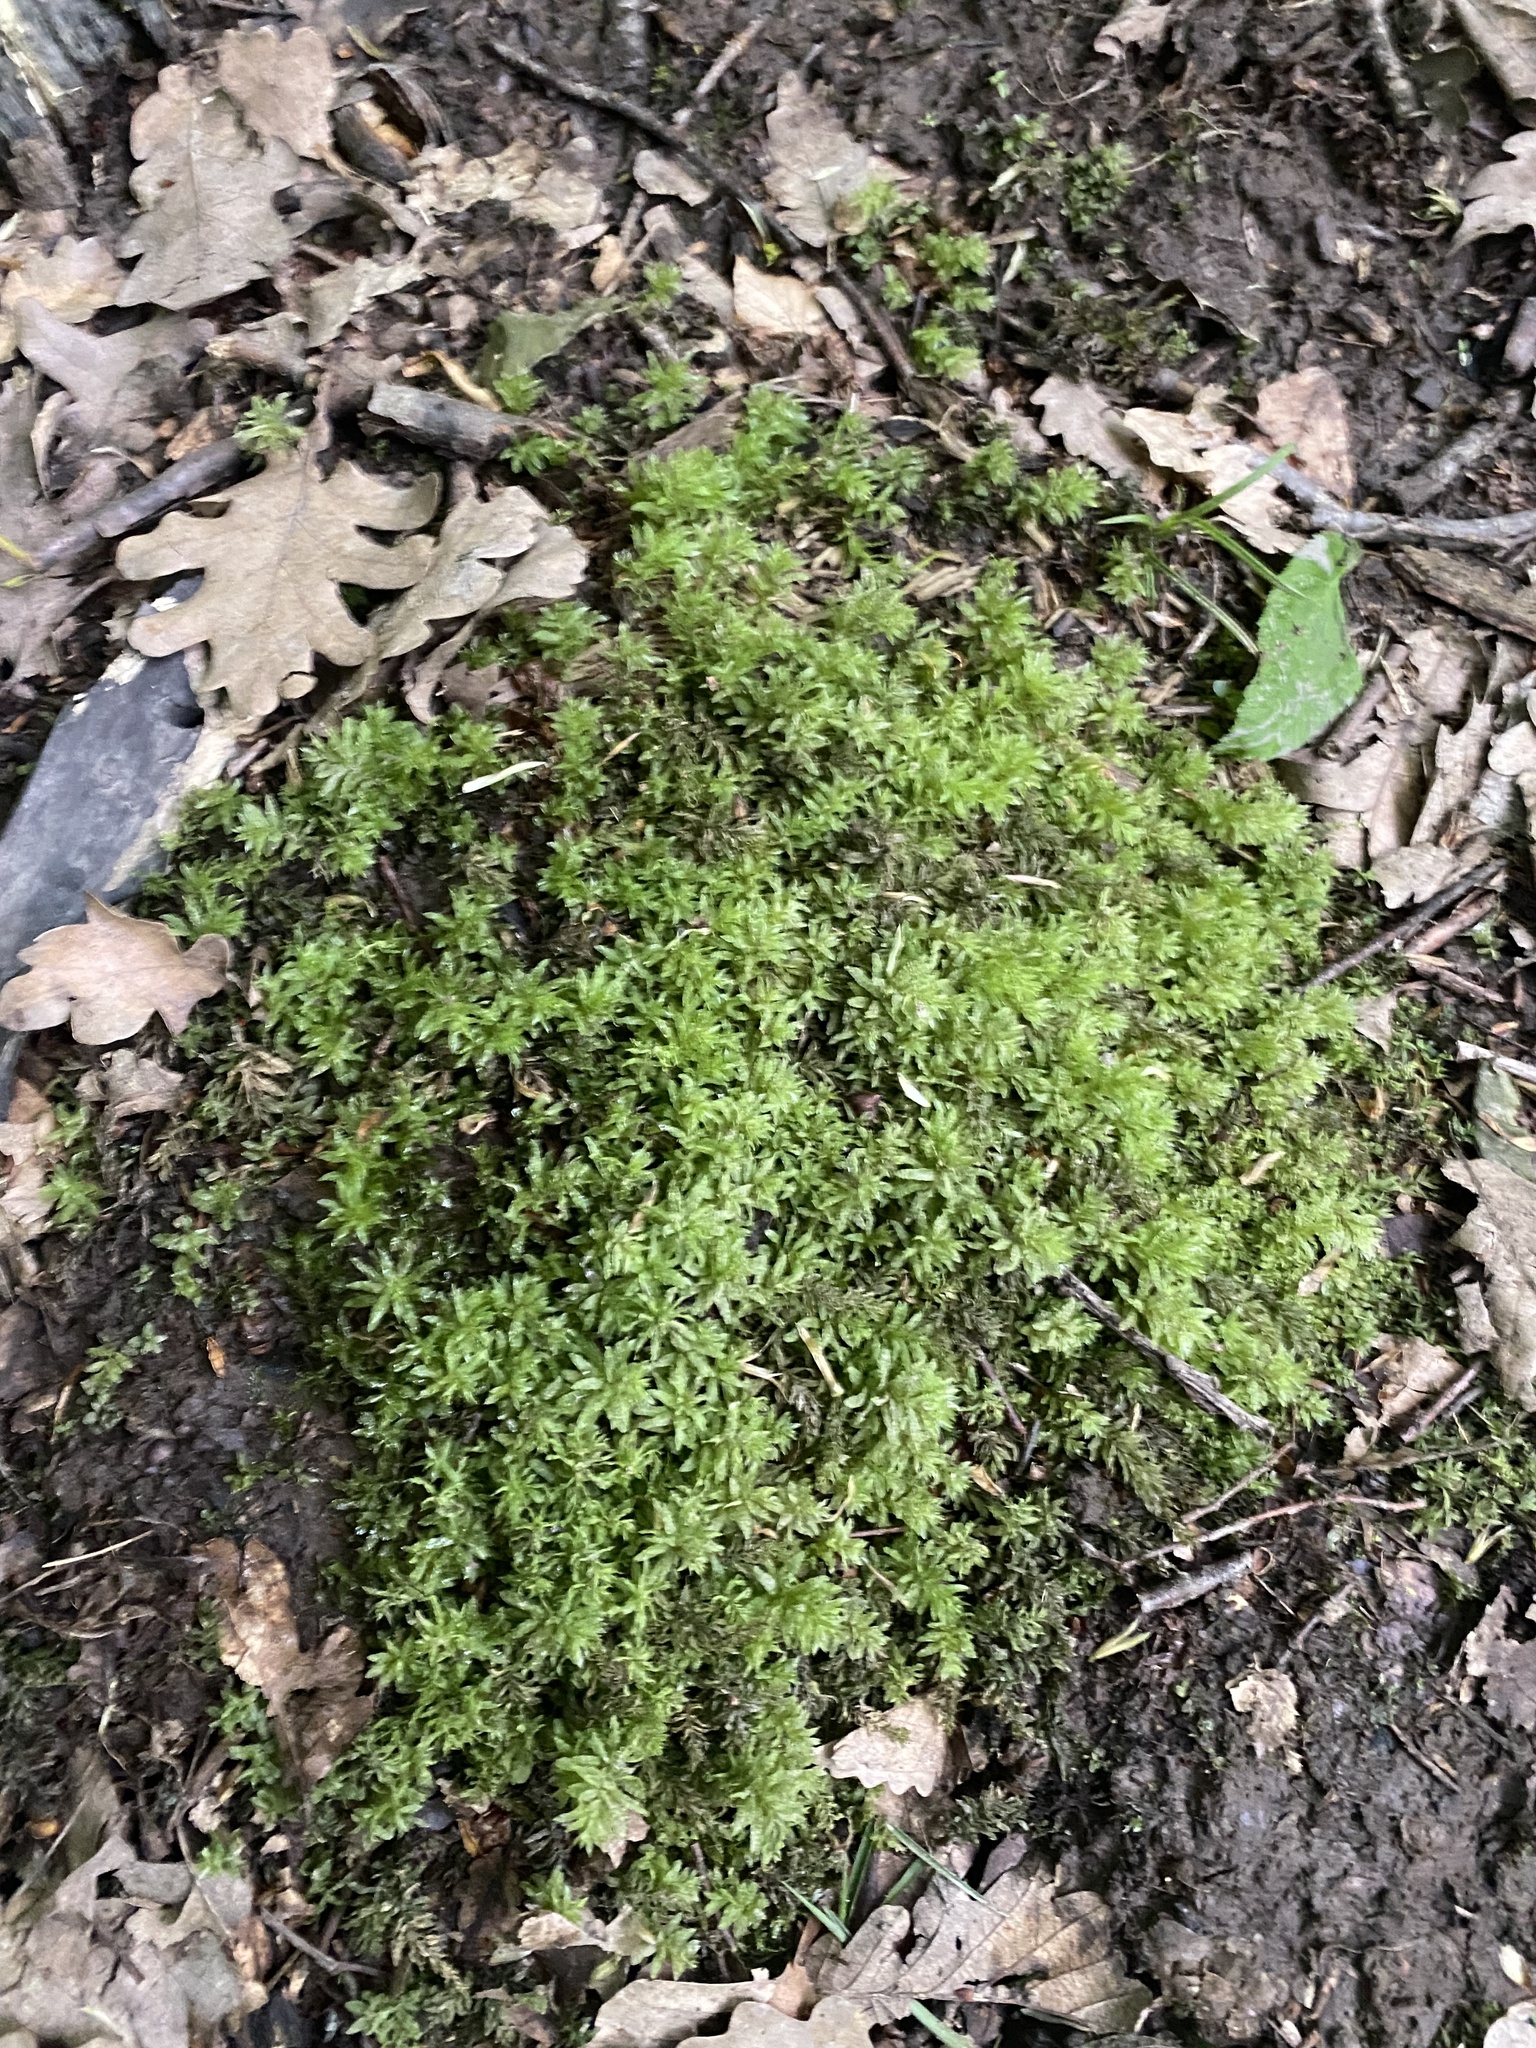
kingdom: Plantae
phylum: Bryophyta
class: Bryopsida
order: Bryales
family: Mniaceae
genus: Plagiomnium
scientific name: Plagiomnium undulatum
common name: Hart's-tongue thyme-moss
